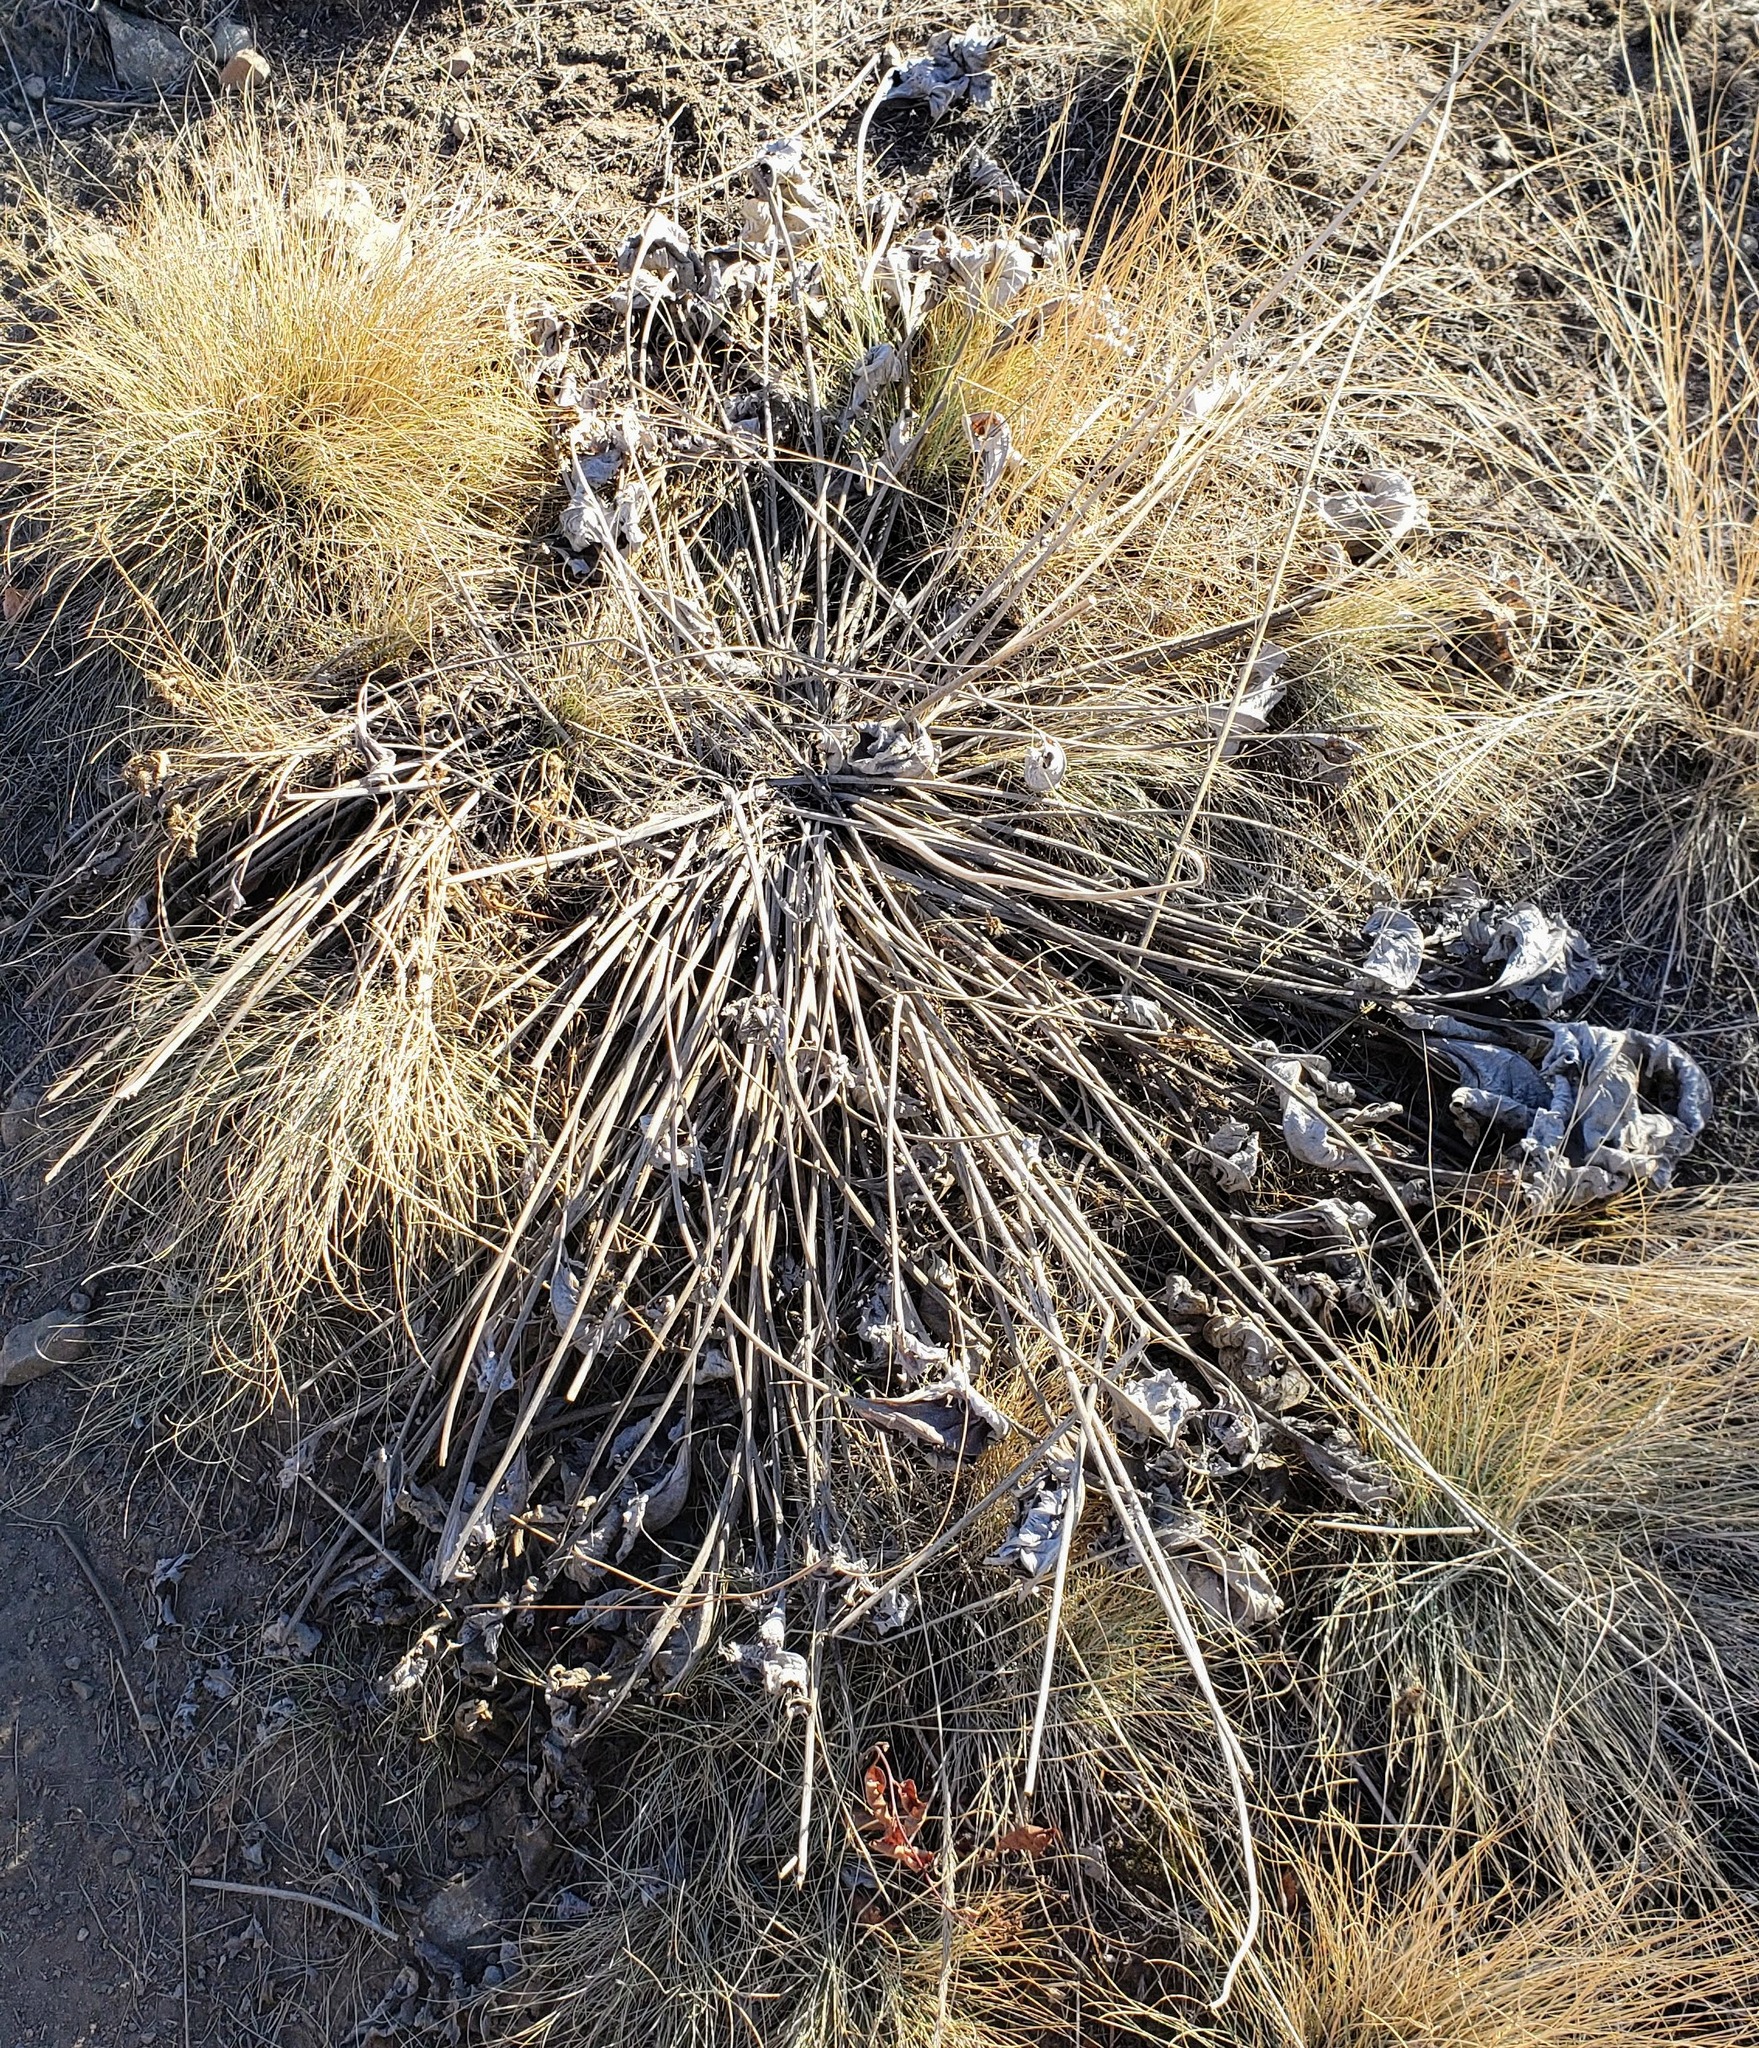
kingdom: Plantae
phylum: Tracheophyta
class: Magnoliopsida
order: Asterales
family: Asteraceae
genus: Wyethia
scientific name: Wyethia sagittata
